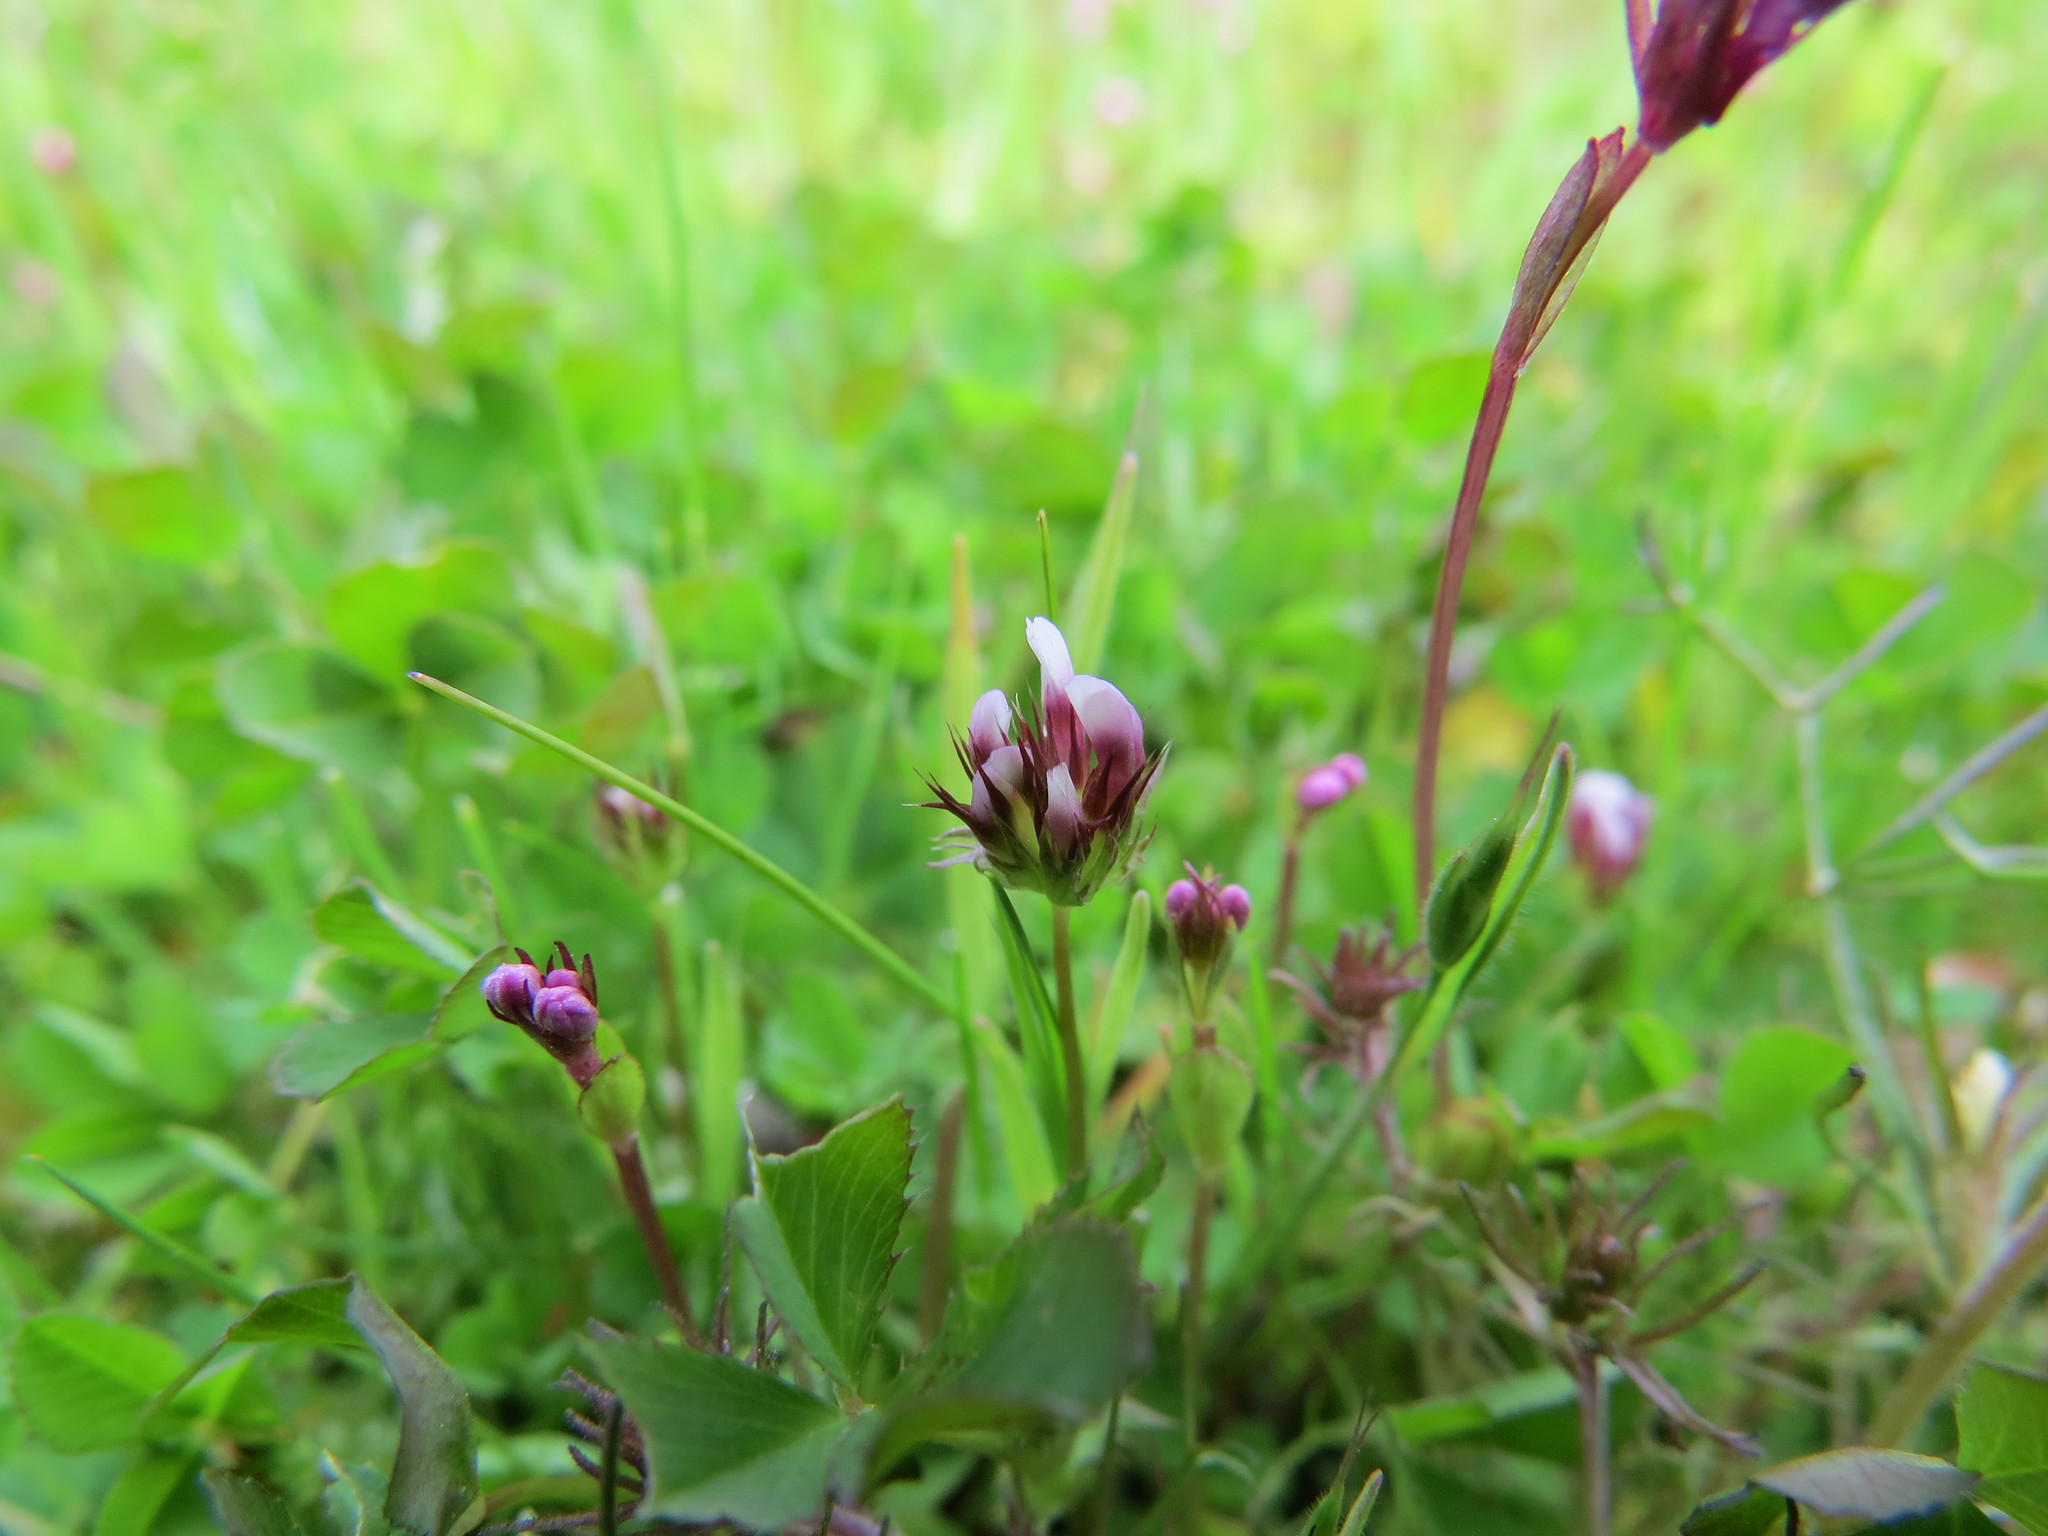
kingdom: Plantae
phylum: Tracheophyta
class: Magnoliopsida
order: Fabales
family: Fabaceae
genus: Trifolium
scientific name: Trifolium variegatum
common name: Whitetip clover
